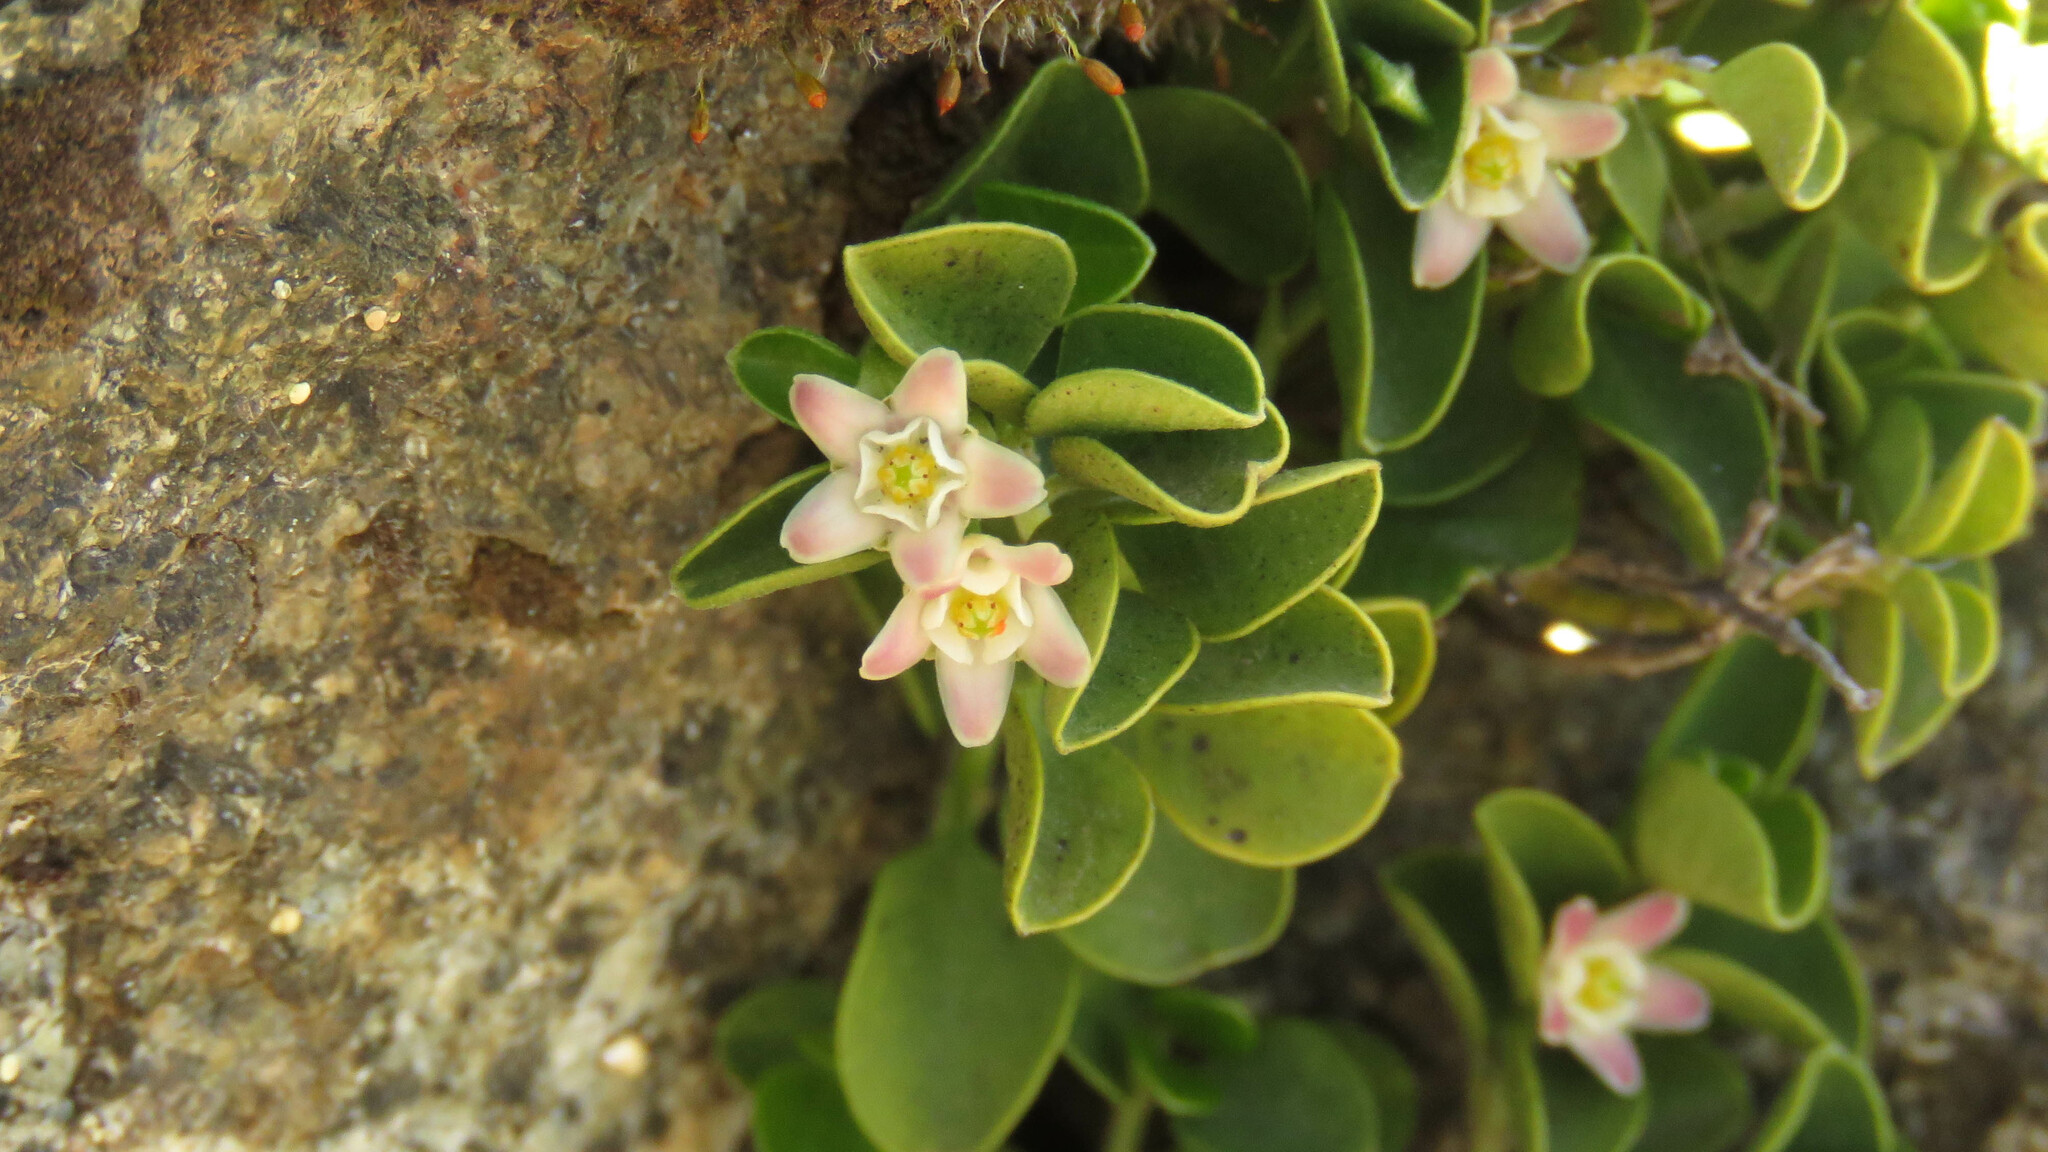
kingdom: Plantae
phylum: Tracheophyta
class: Magnoliopsida
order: Gentianales
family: Apocynaceae
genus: Diplolepis
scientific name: Diplolepis biflora
